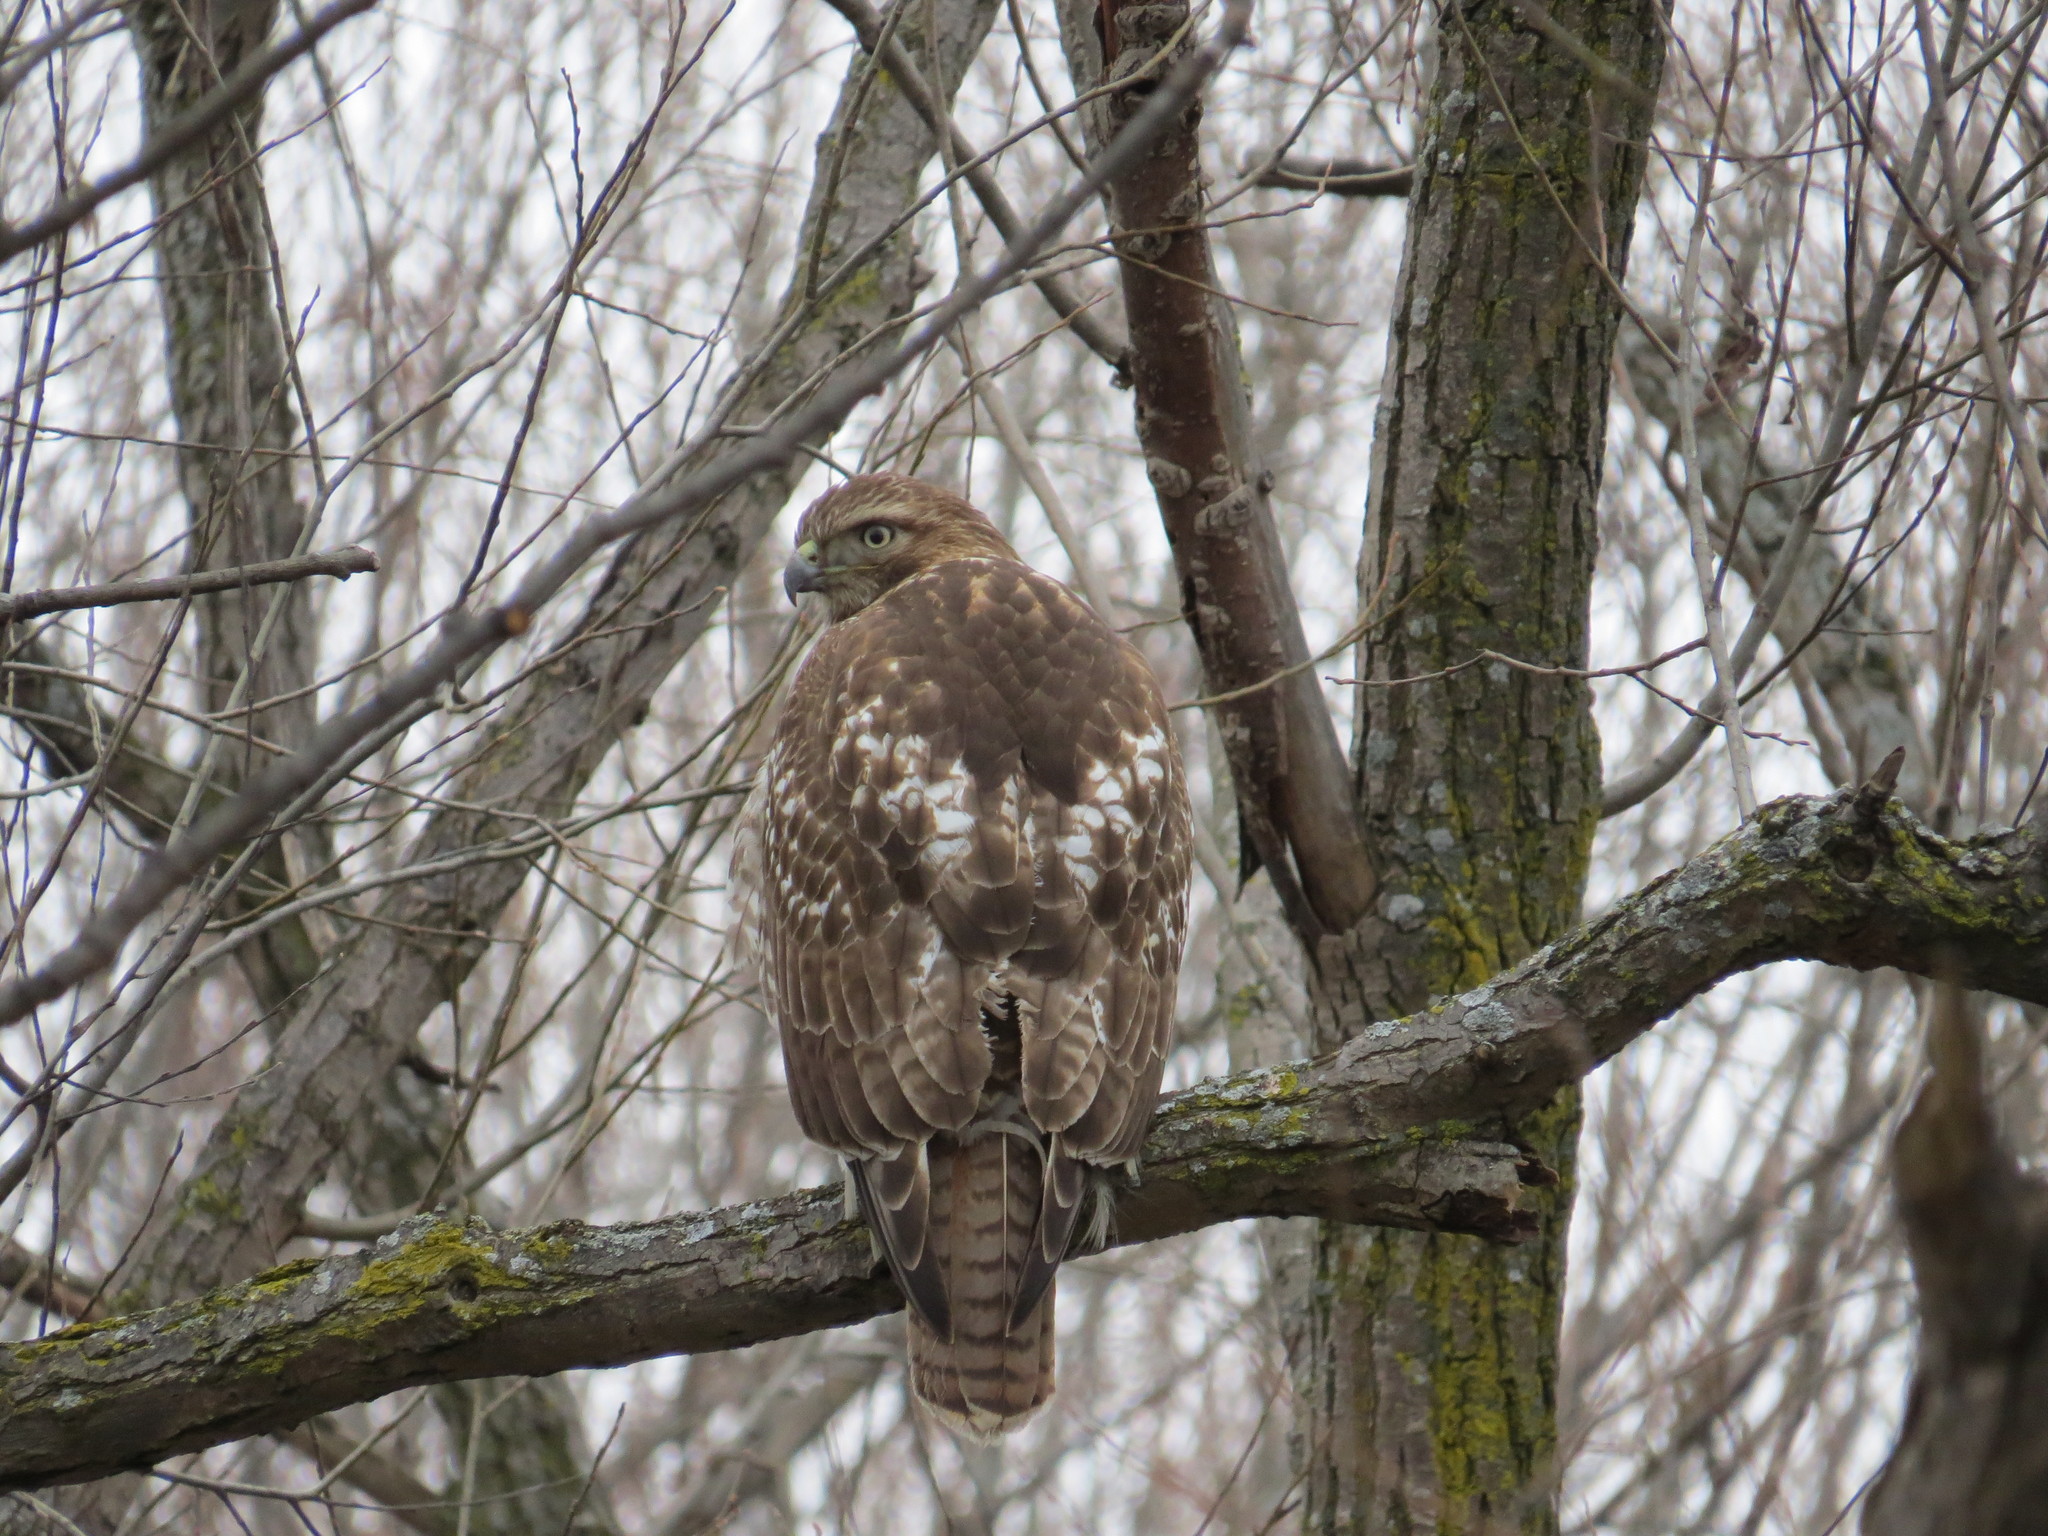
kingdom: Animalia
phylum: Chordata
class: Aves
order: Accipitriformes
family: Accipitridae
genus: Buteo
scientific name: Buteo jamaicensis
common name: Red-tailed hawk
